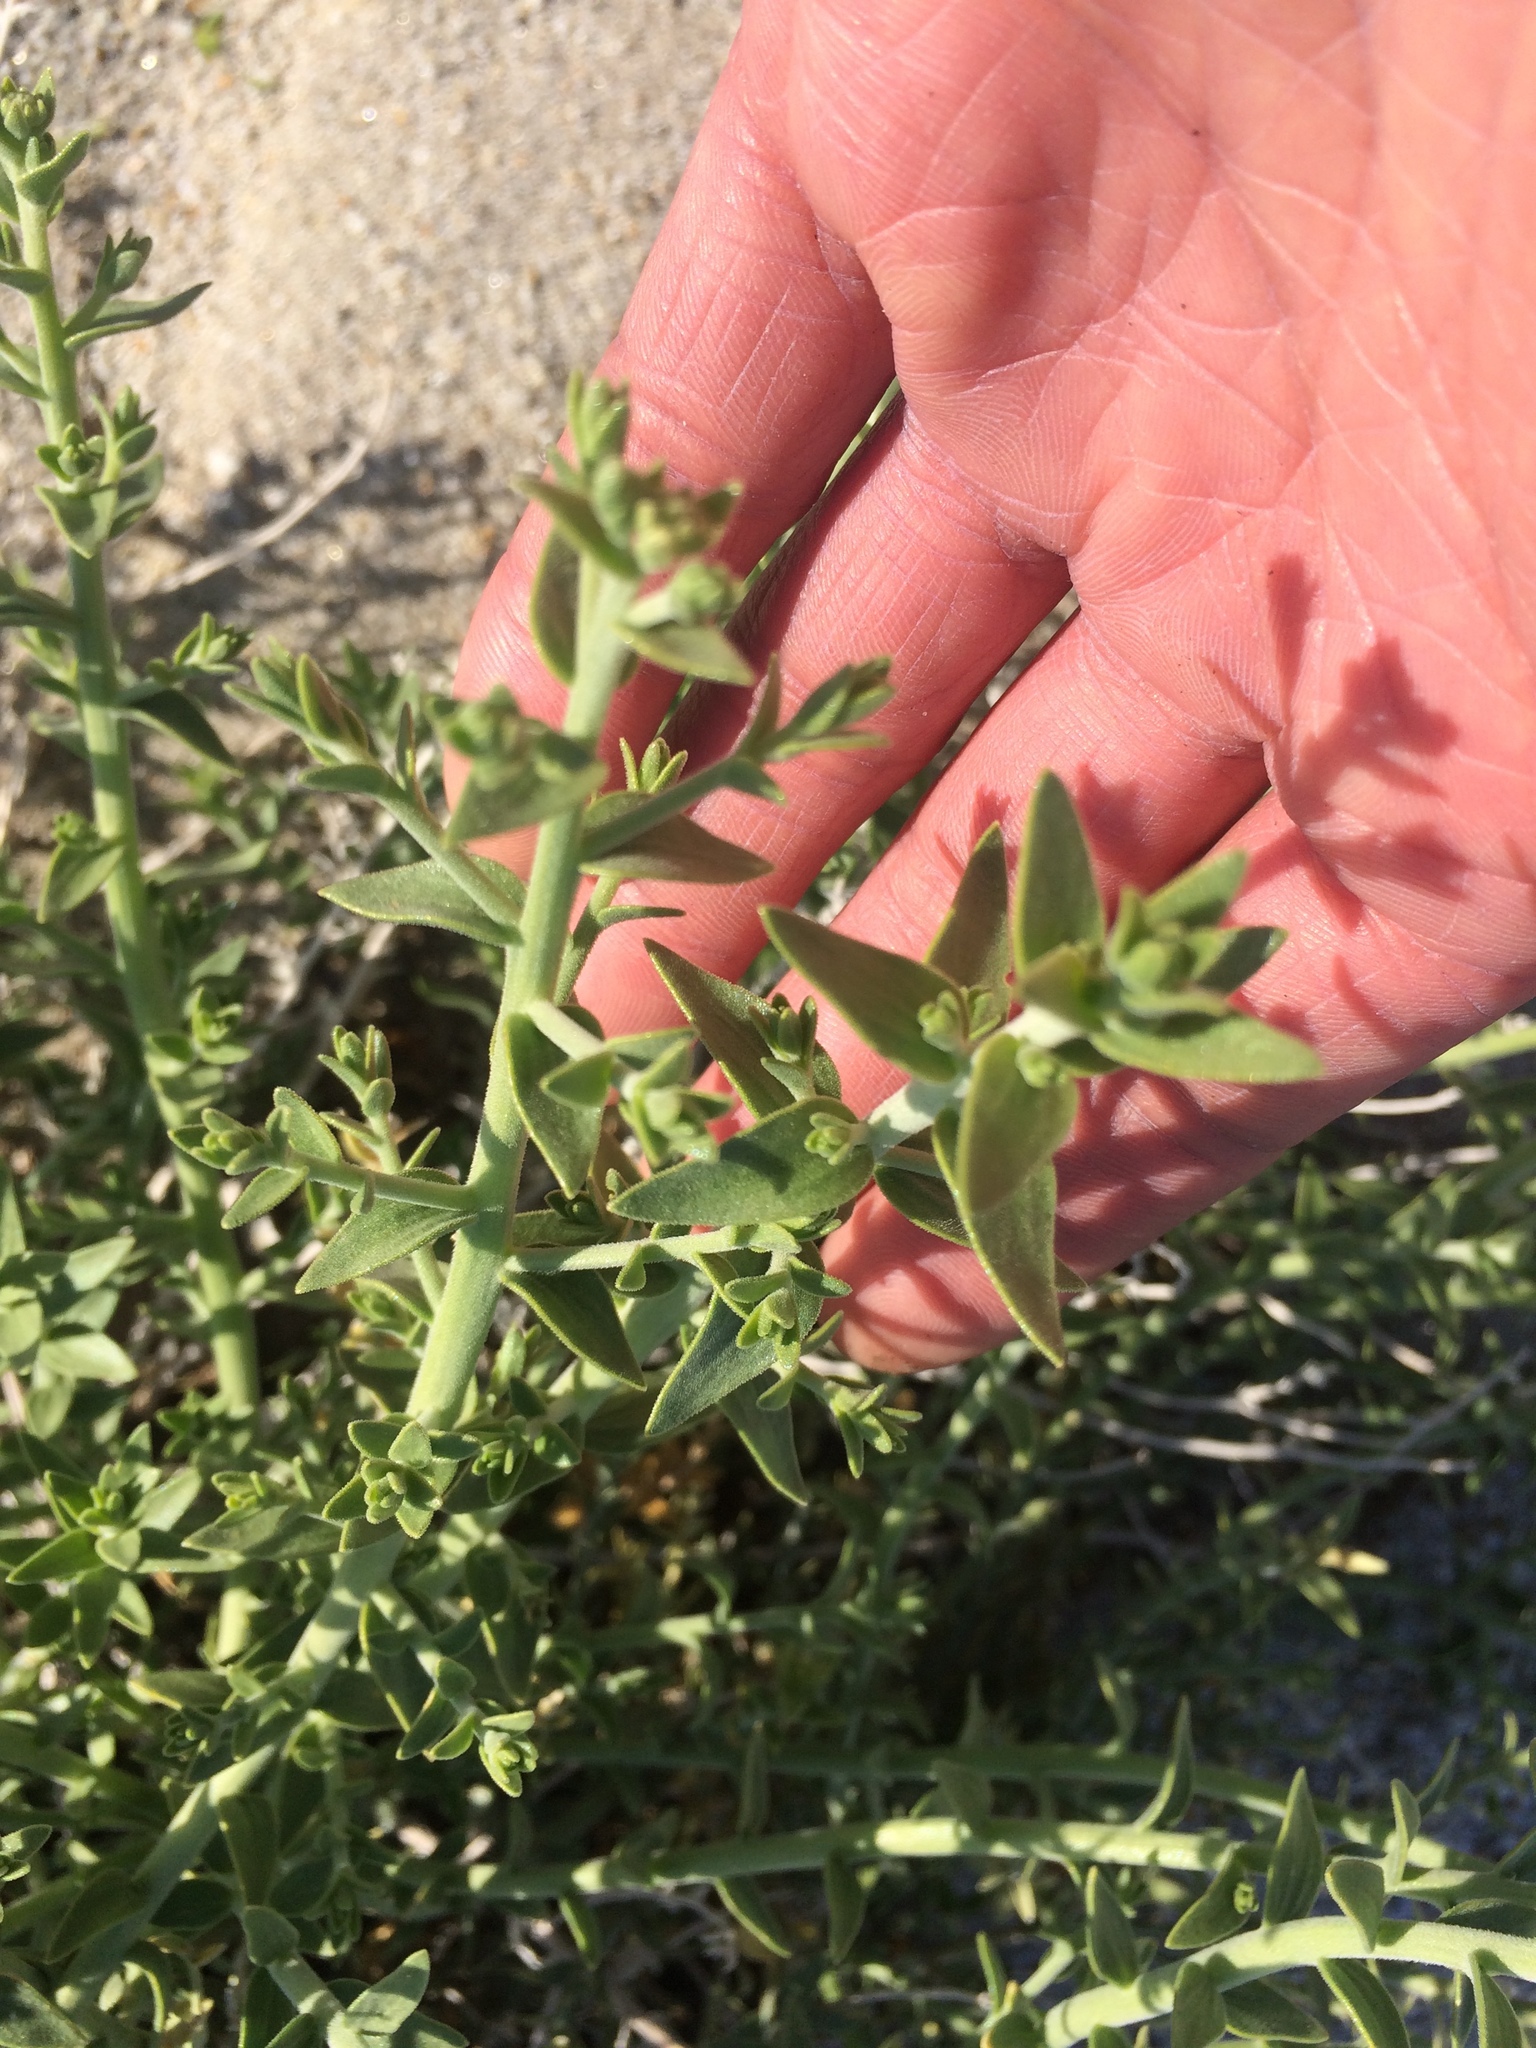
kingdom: Plantae
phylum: Tracheophyta
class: Magnoliopsida
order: Cornales
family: Loasaceae
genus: Petalonyx
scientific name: Petalonyx thurberi
